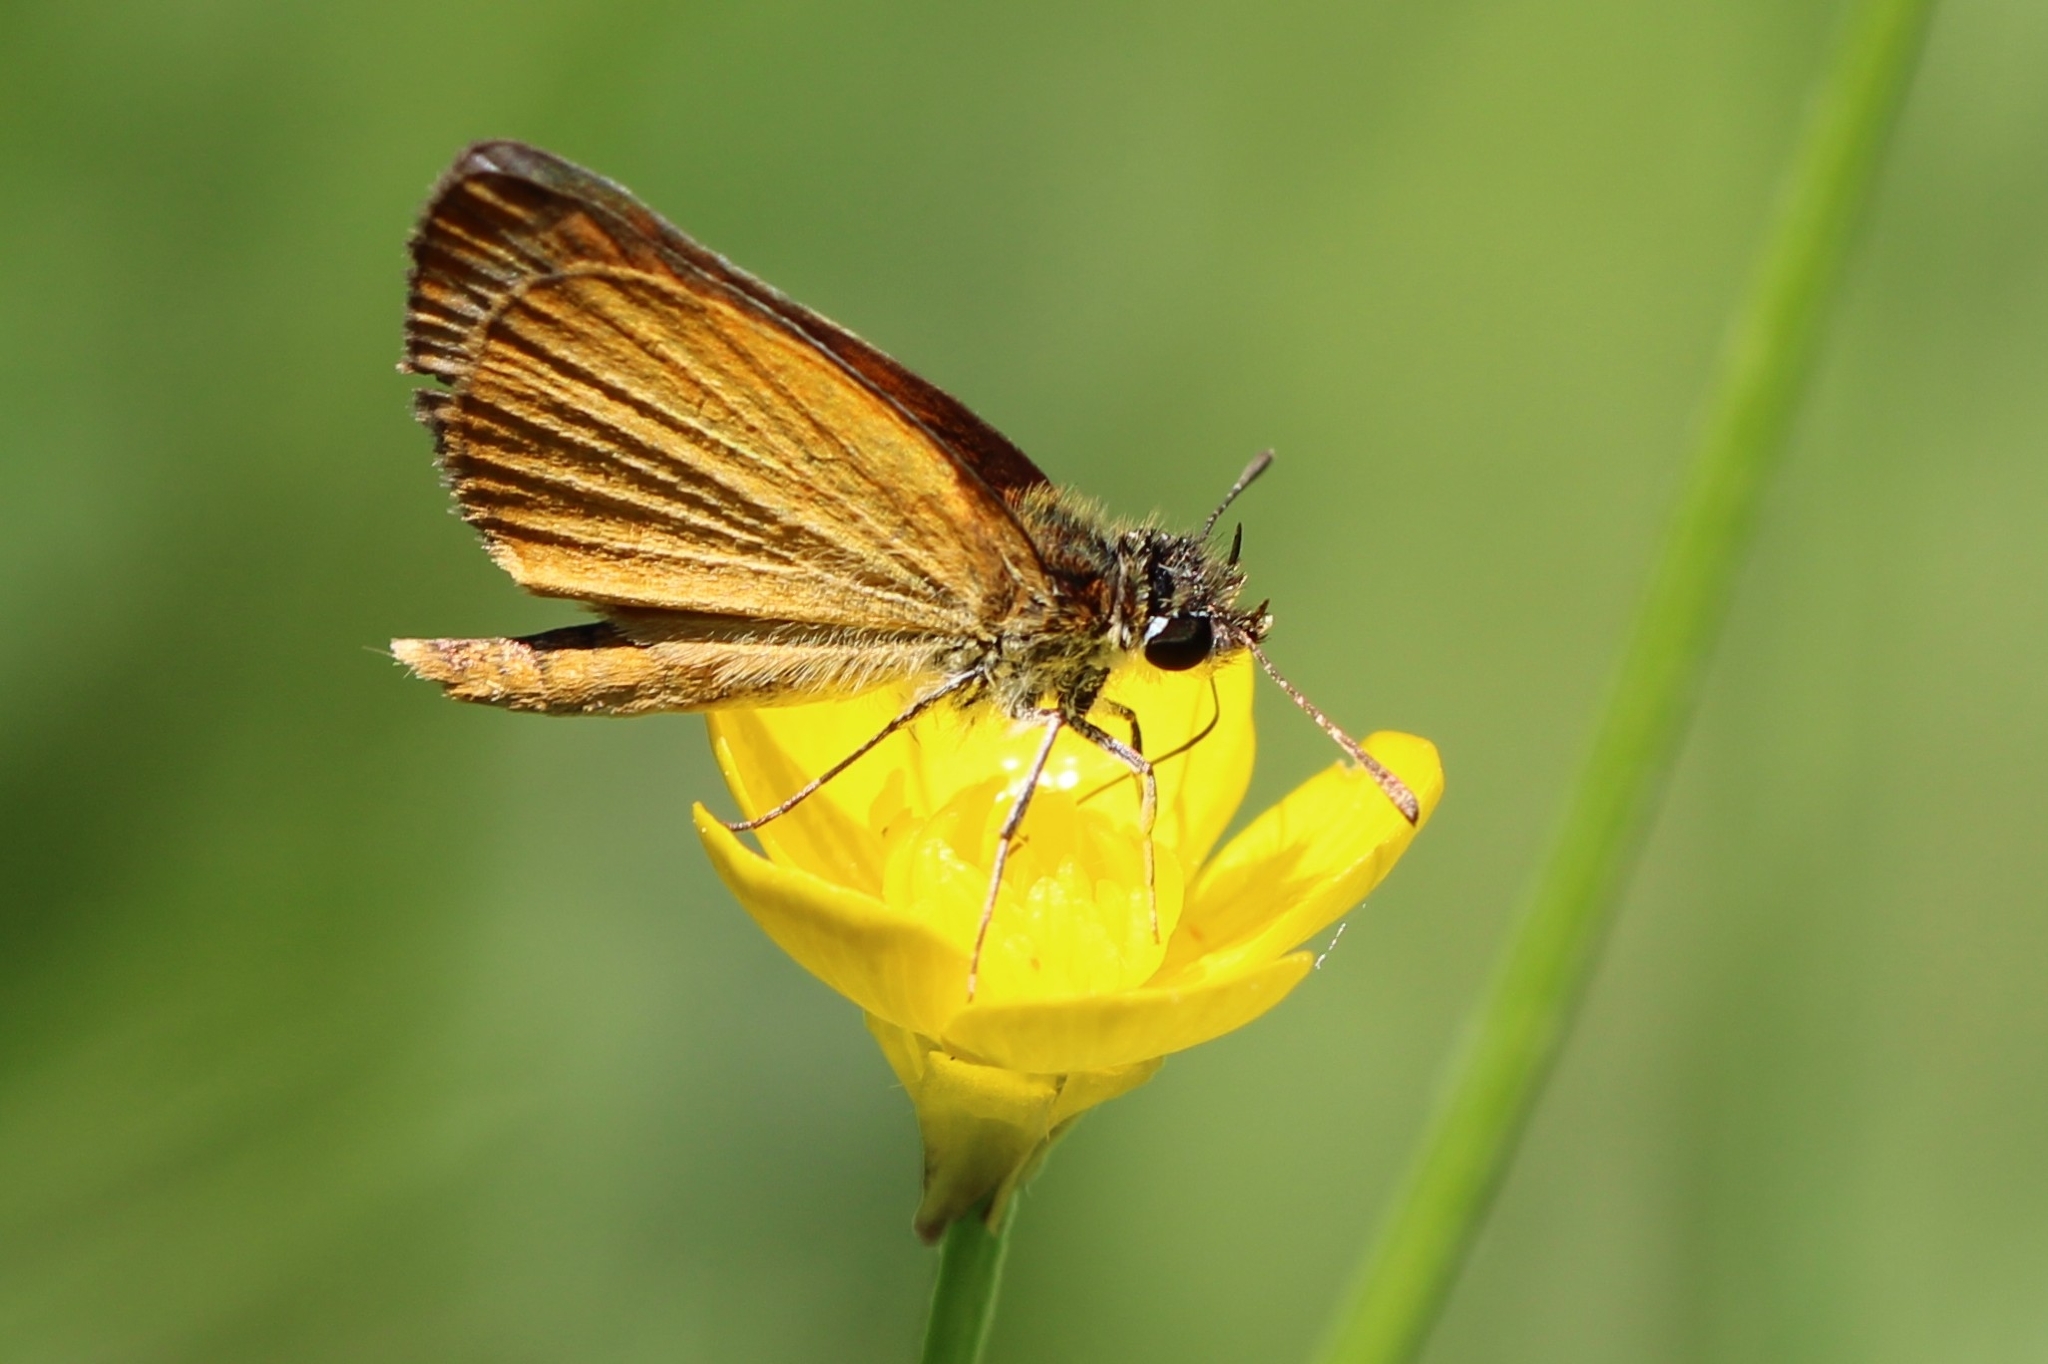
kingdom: Animalia
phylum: Arthropoda
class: Insecta
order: Lepidoptera
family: Hesperiidae
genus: Ancyloxypha
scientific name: Ancyloxypha numitor
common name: Least skipper
